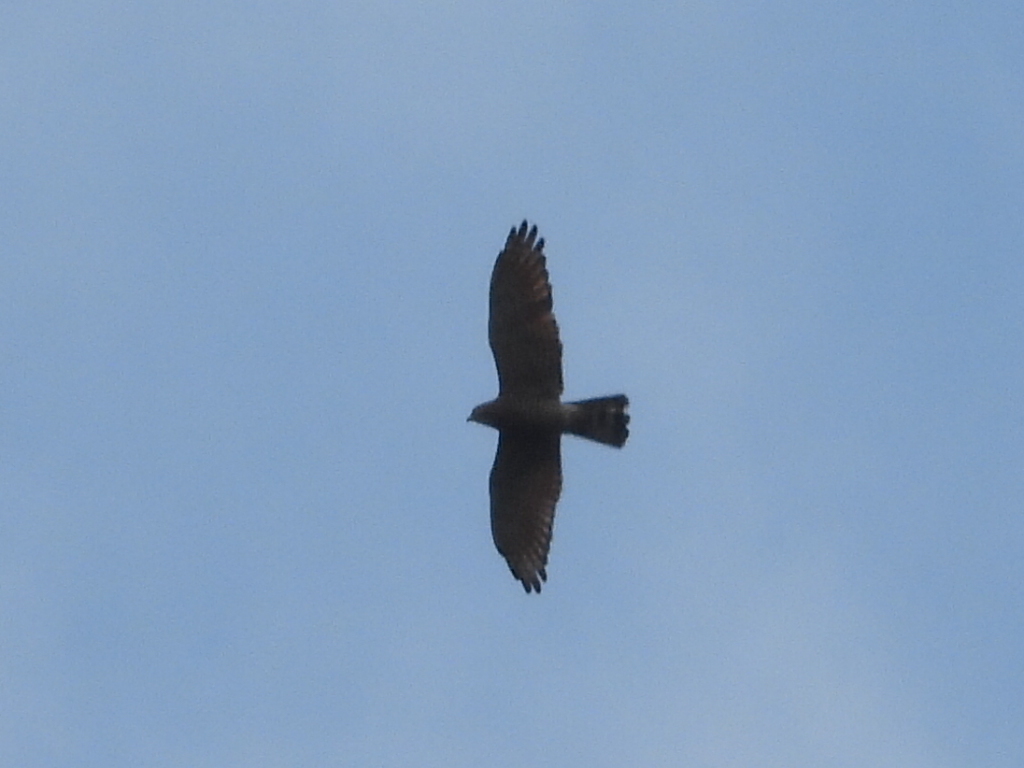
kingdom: Animalia
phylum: Chordata
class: Aves
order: Accipitriformes
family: Accipitridae
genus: Butastur
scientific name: Butastur indicus
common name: Grey-faced buzzard
